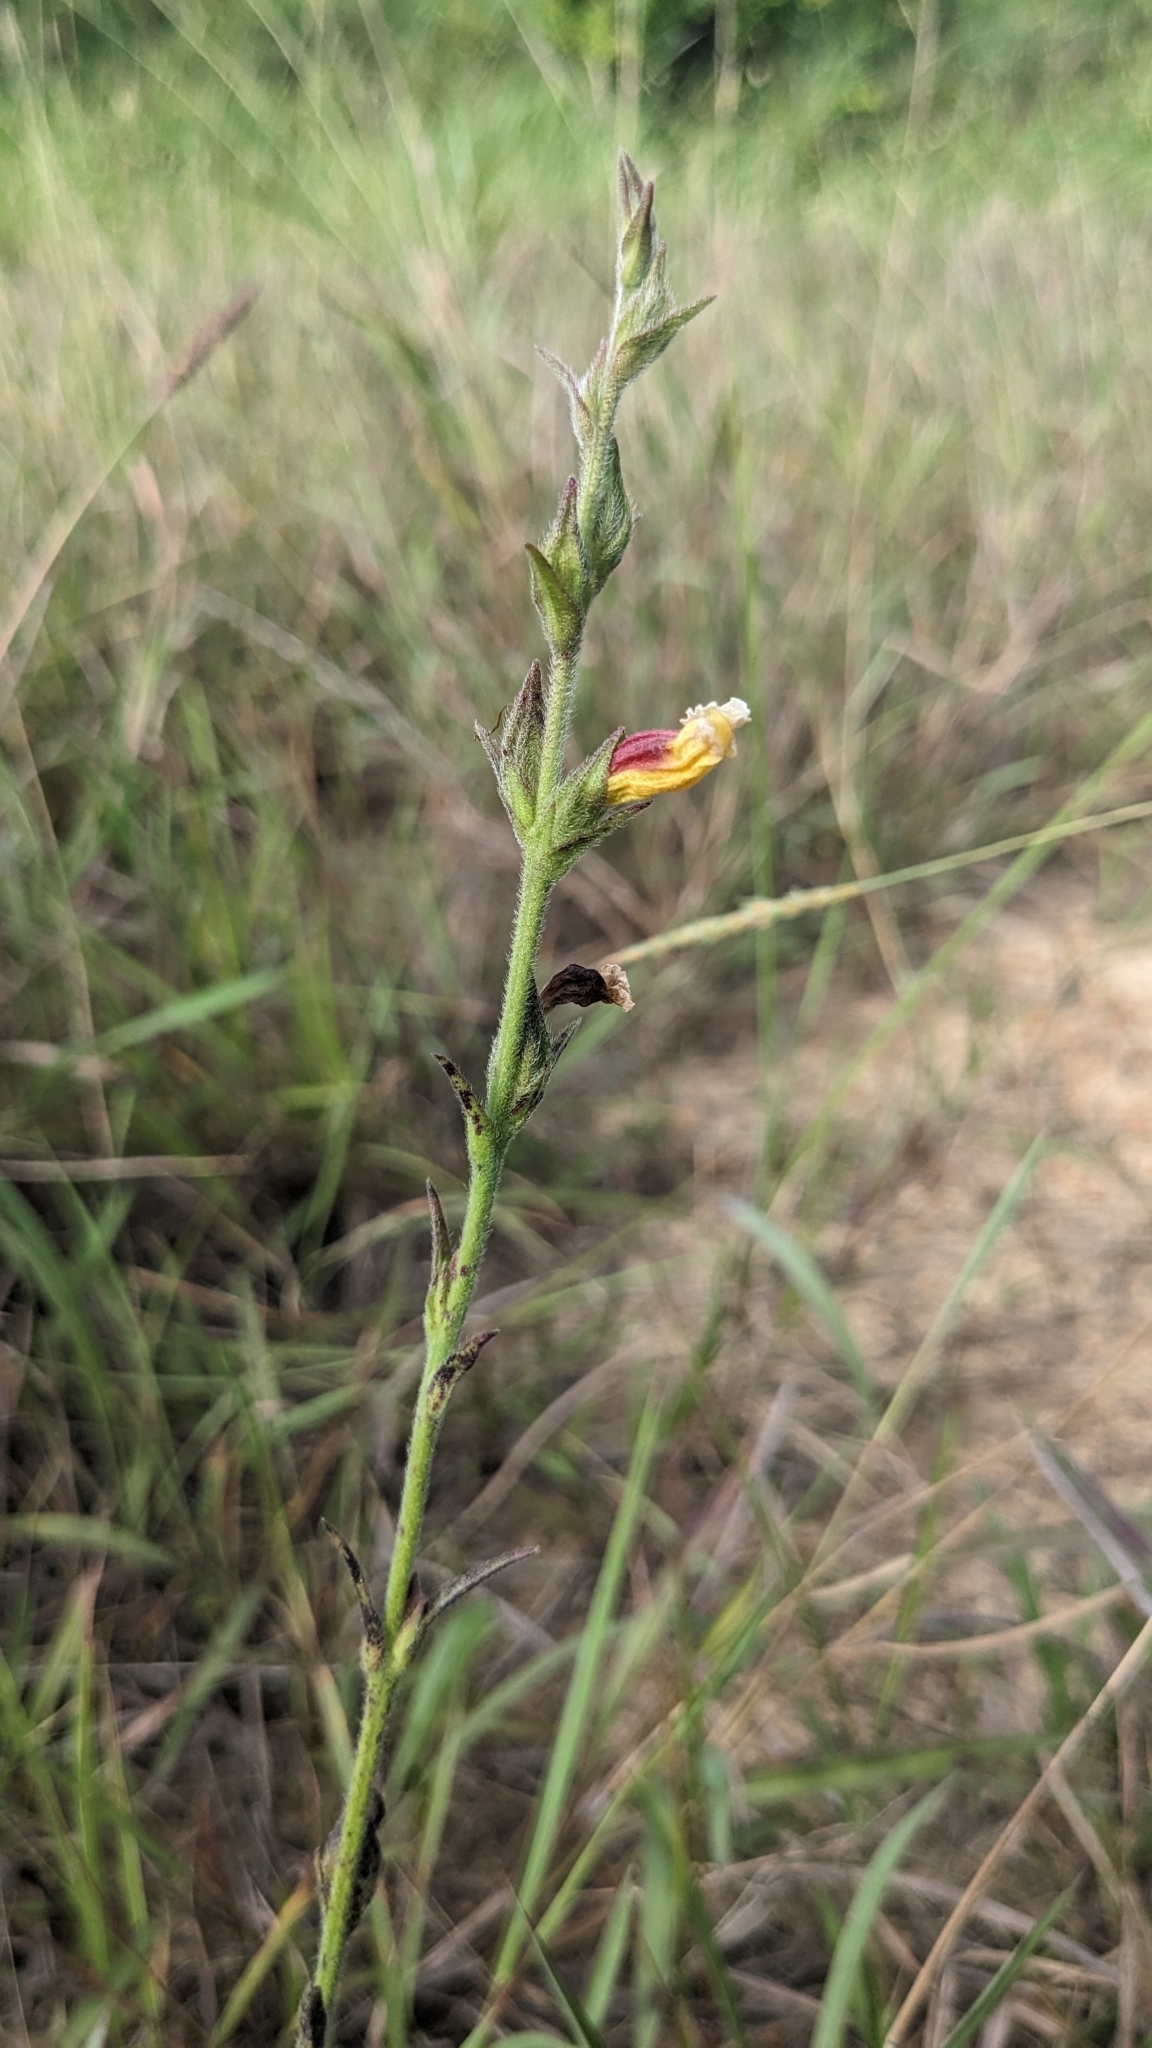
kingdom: Plantae
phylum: Tracheophyta
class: Magnoliopsida
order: Lamiales
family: Orobanchaceae
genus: Centranthera
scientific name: Centranthera cochinchinensis
